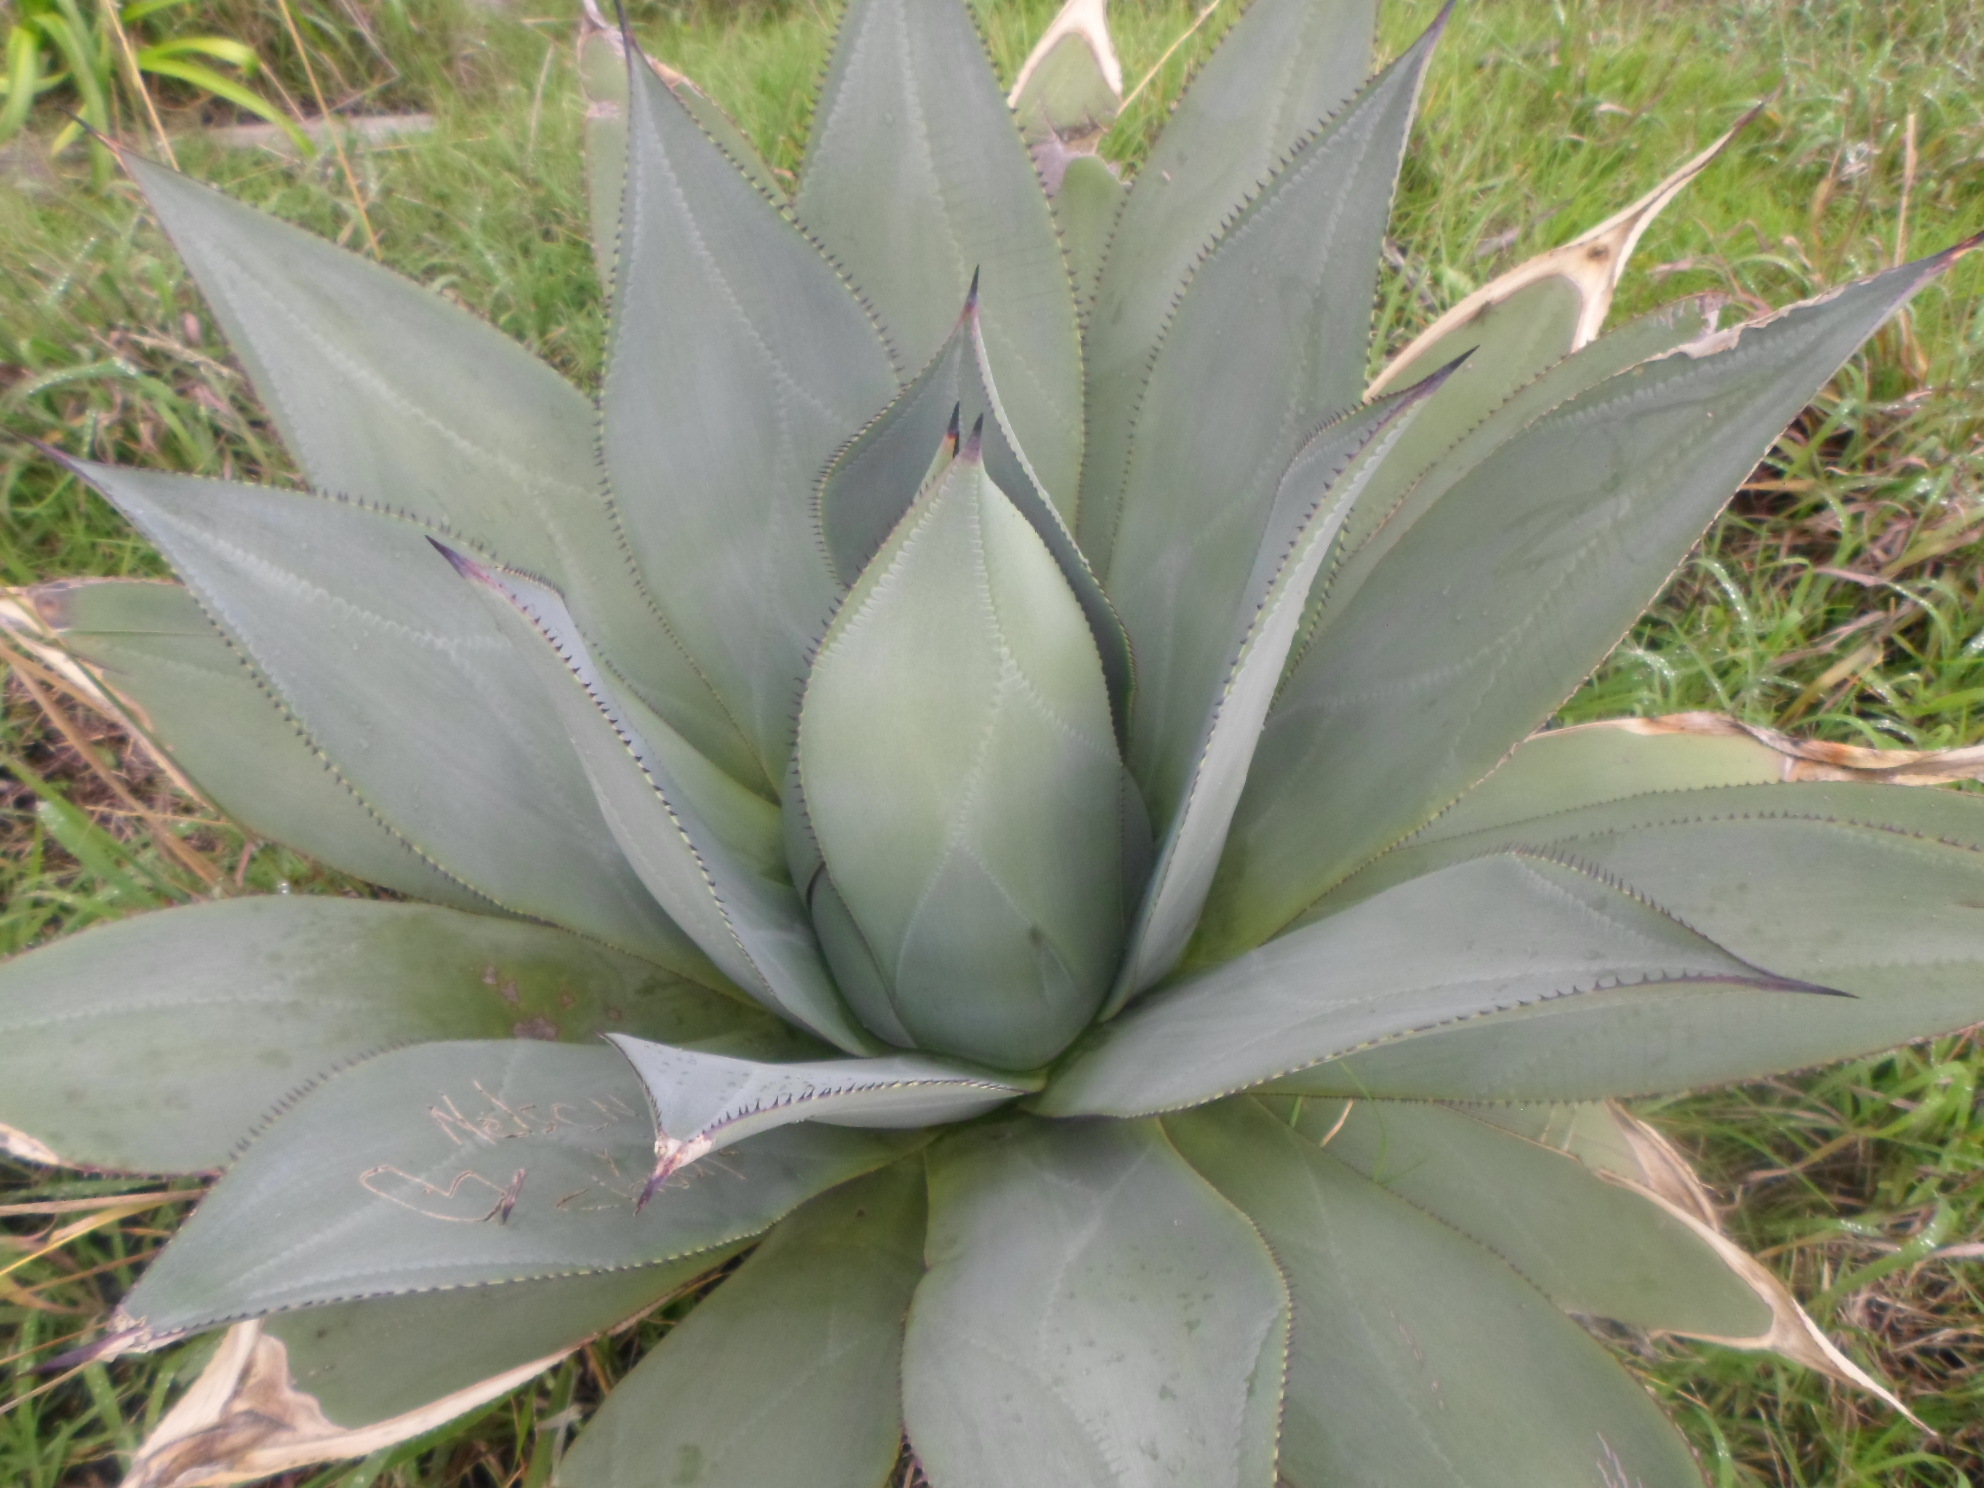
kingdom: Plantae
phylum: Tracheophyta
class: Liliopsida
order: Asparagales
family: Asparagaceae
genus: Agave
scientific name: Agave sylvesteriana
